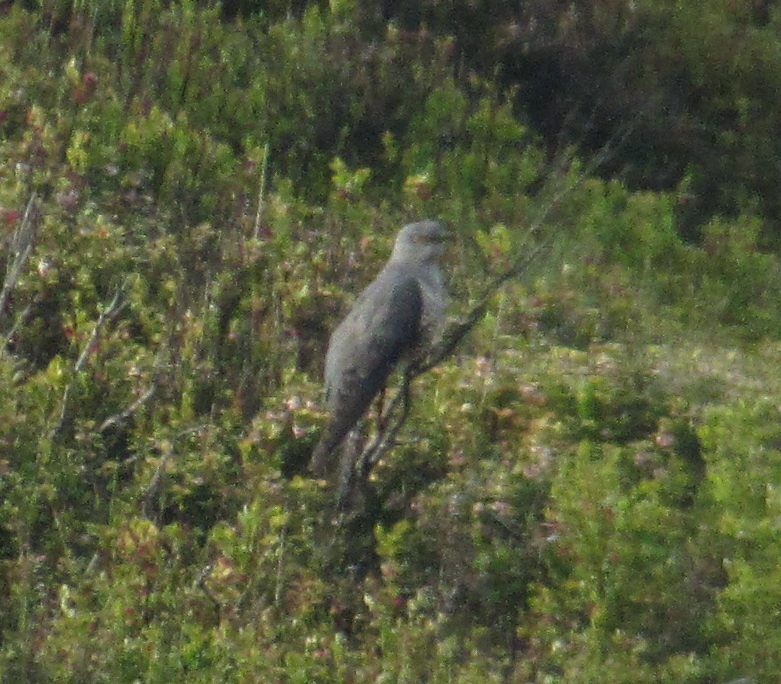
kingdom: Animalia
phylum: Chordata
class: Aves
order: Cuculiformes
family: Cuculidae
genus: Cuculus
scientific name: Cuculus canorus
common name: Common cuckoo
